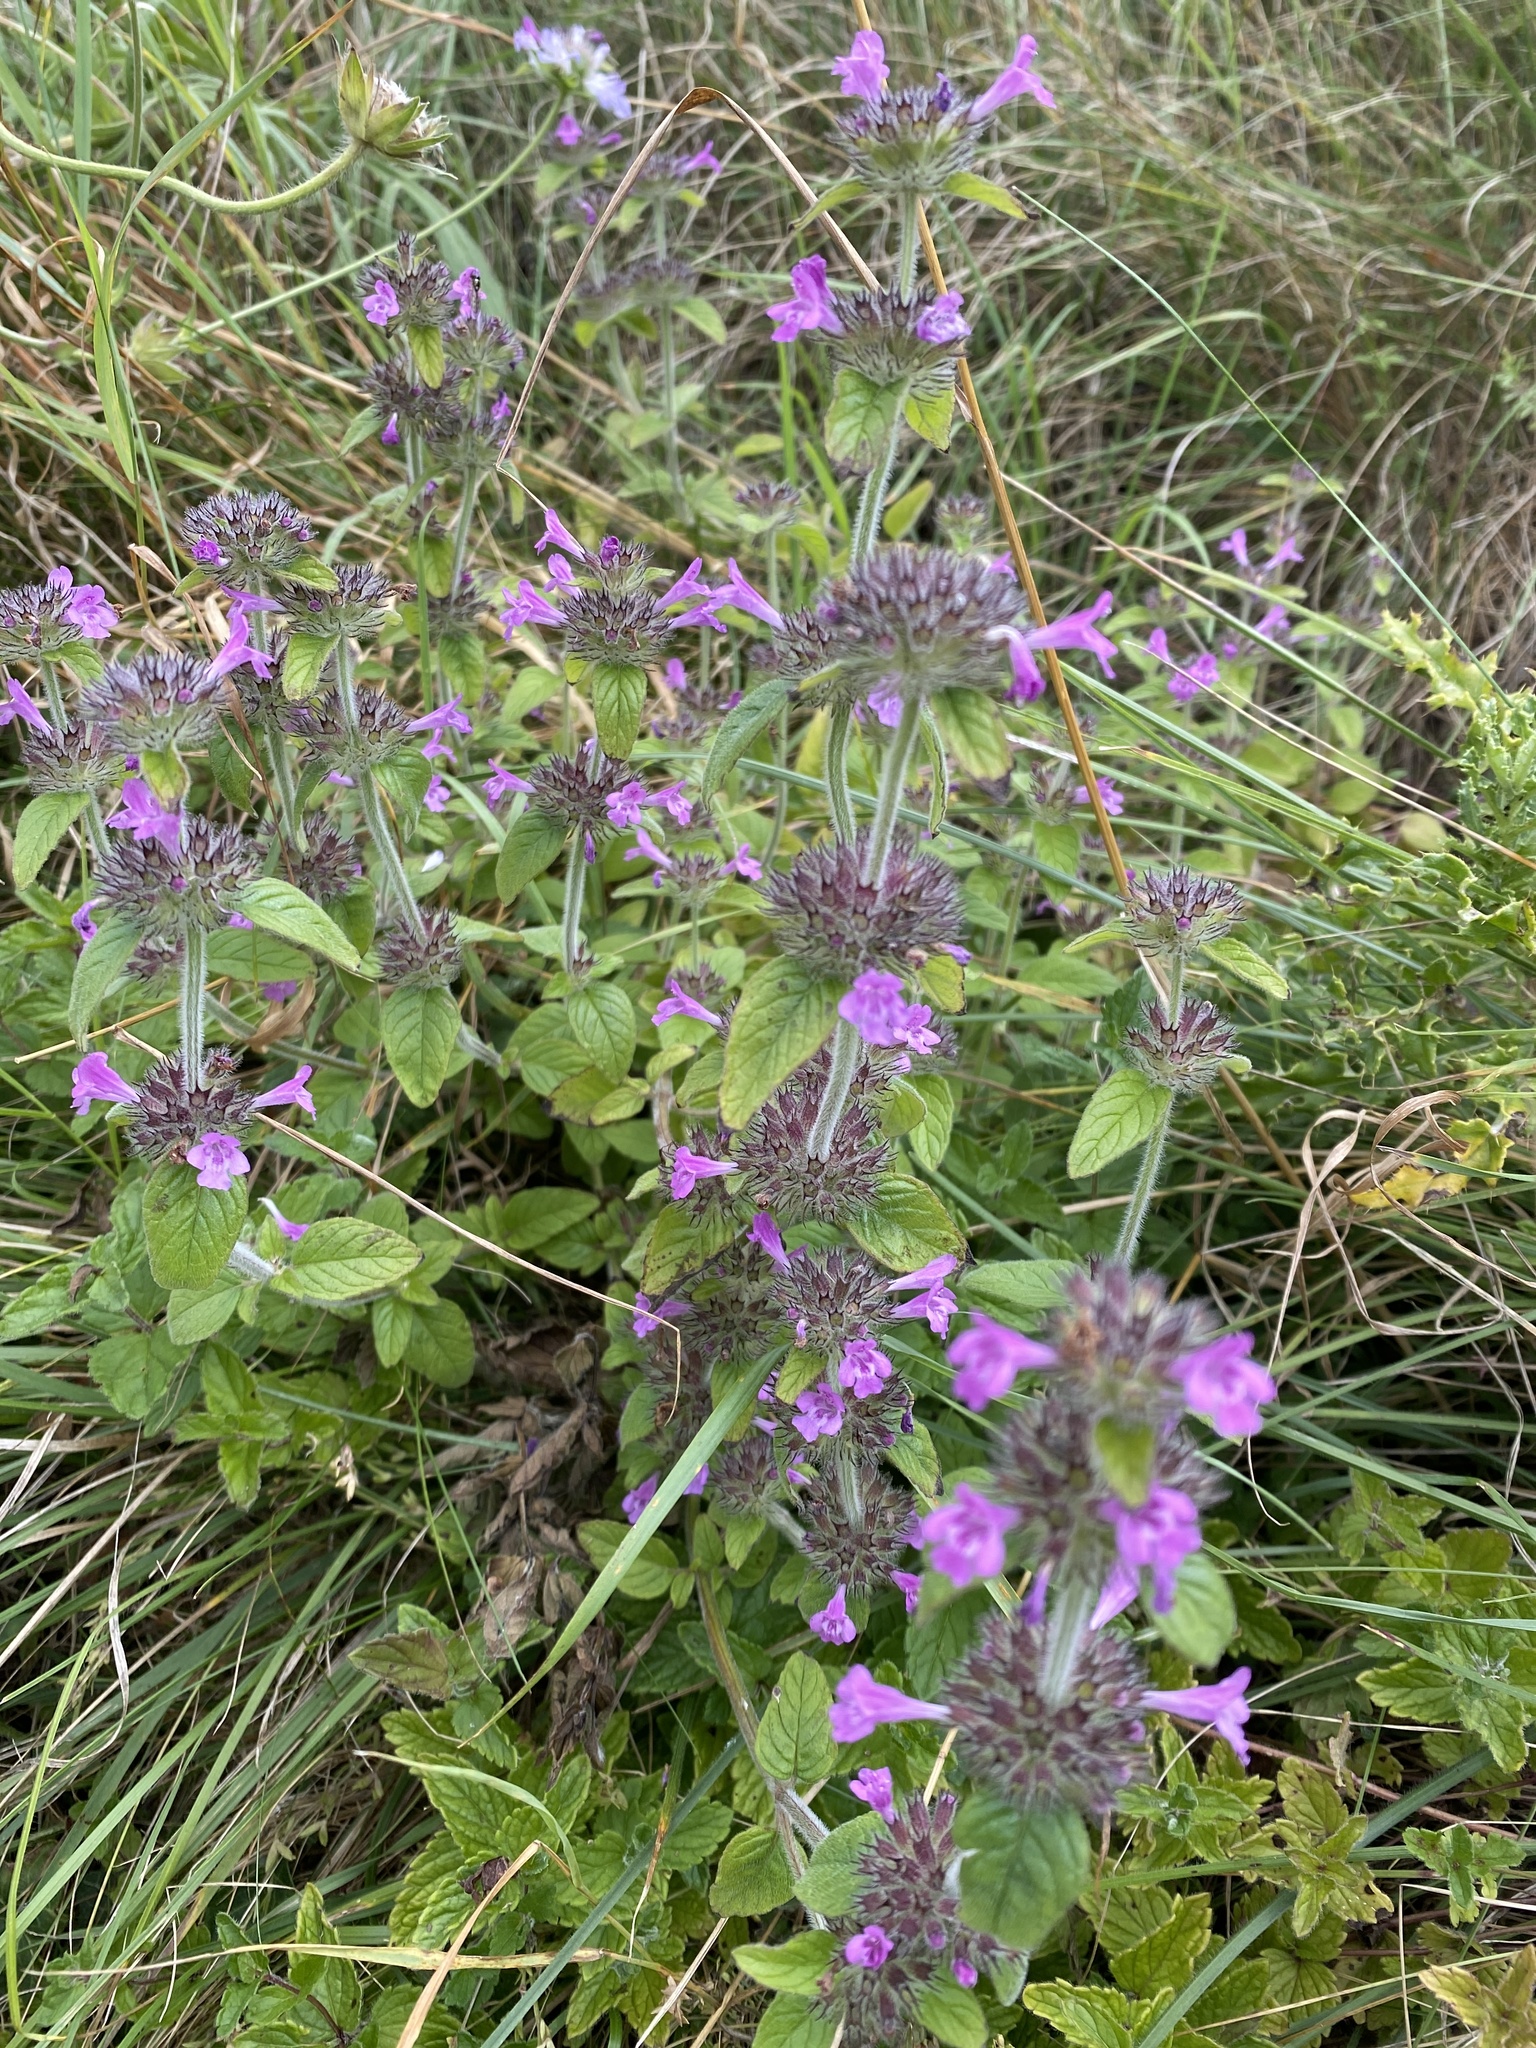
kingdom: Plantae
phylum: Tracheophyta
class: Magnoliopsida
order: Lamiales
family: Lamiaceae
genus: Clinopodium
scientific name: Clinopodium vulgare
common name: Wild basil
